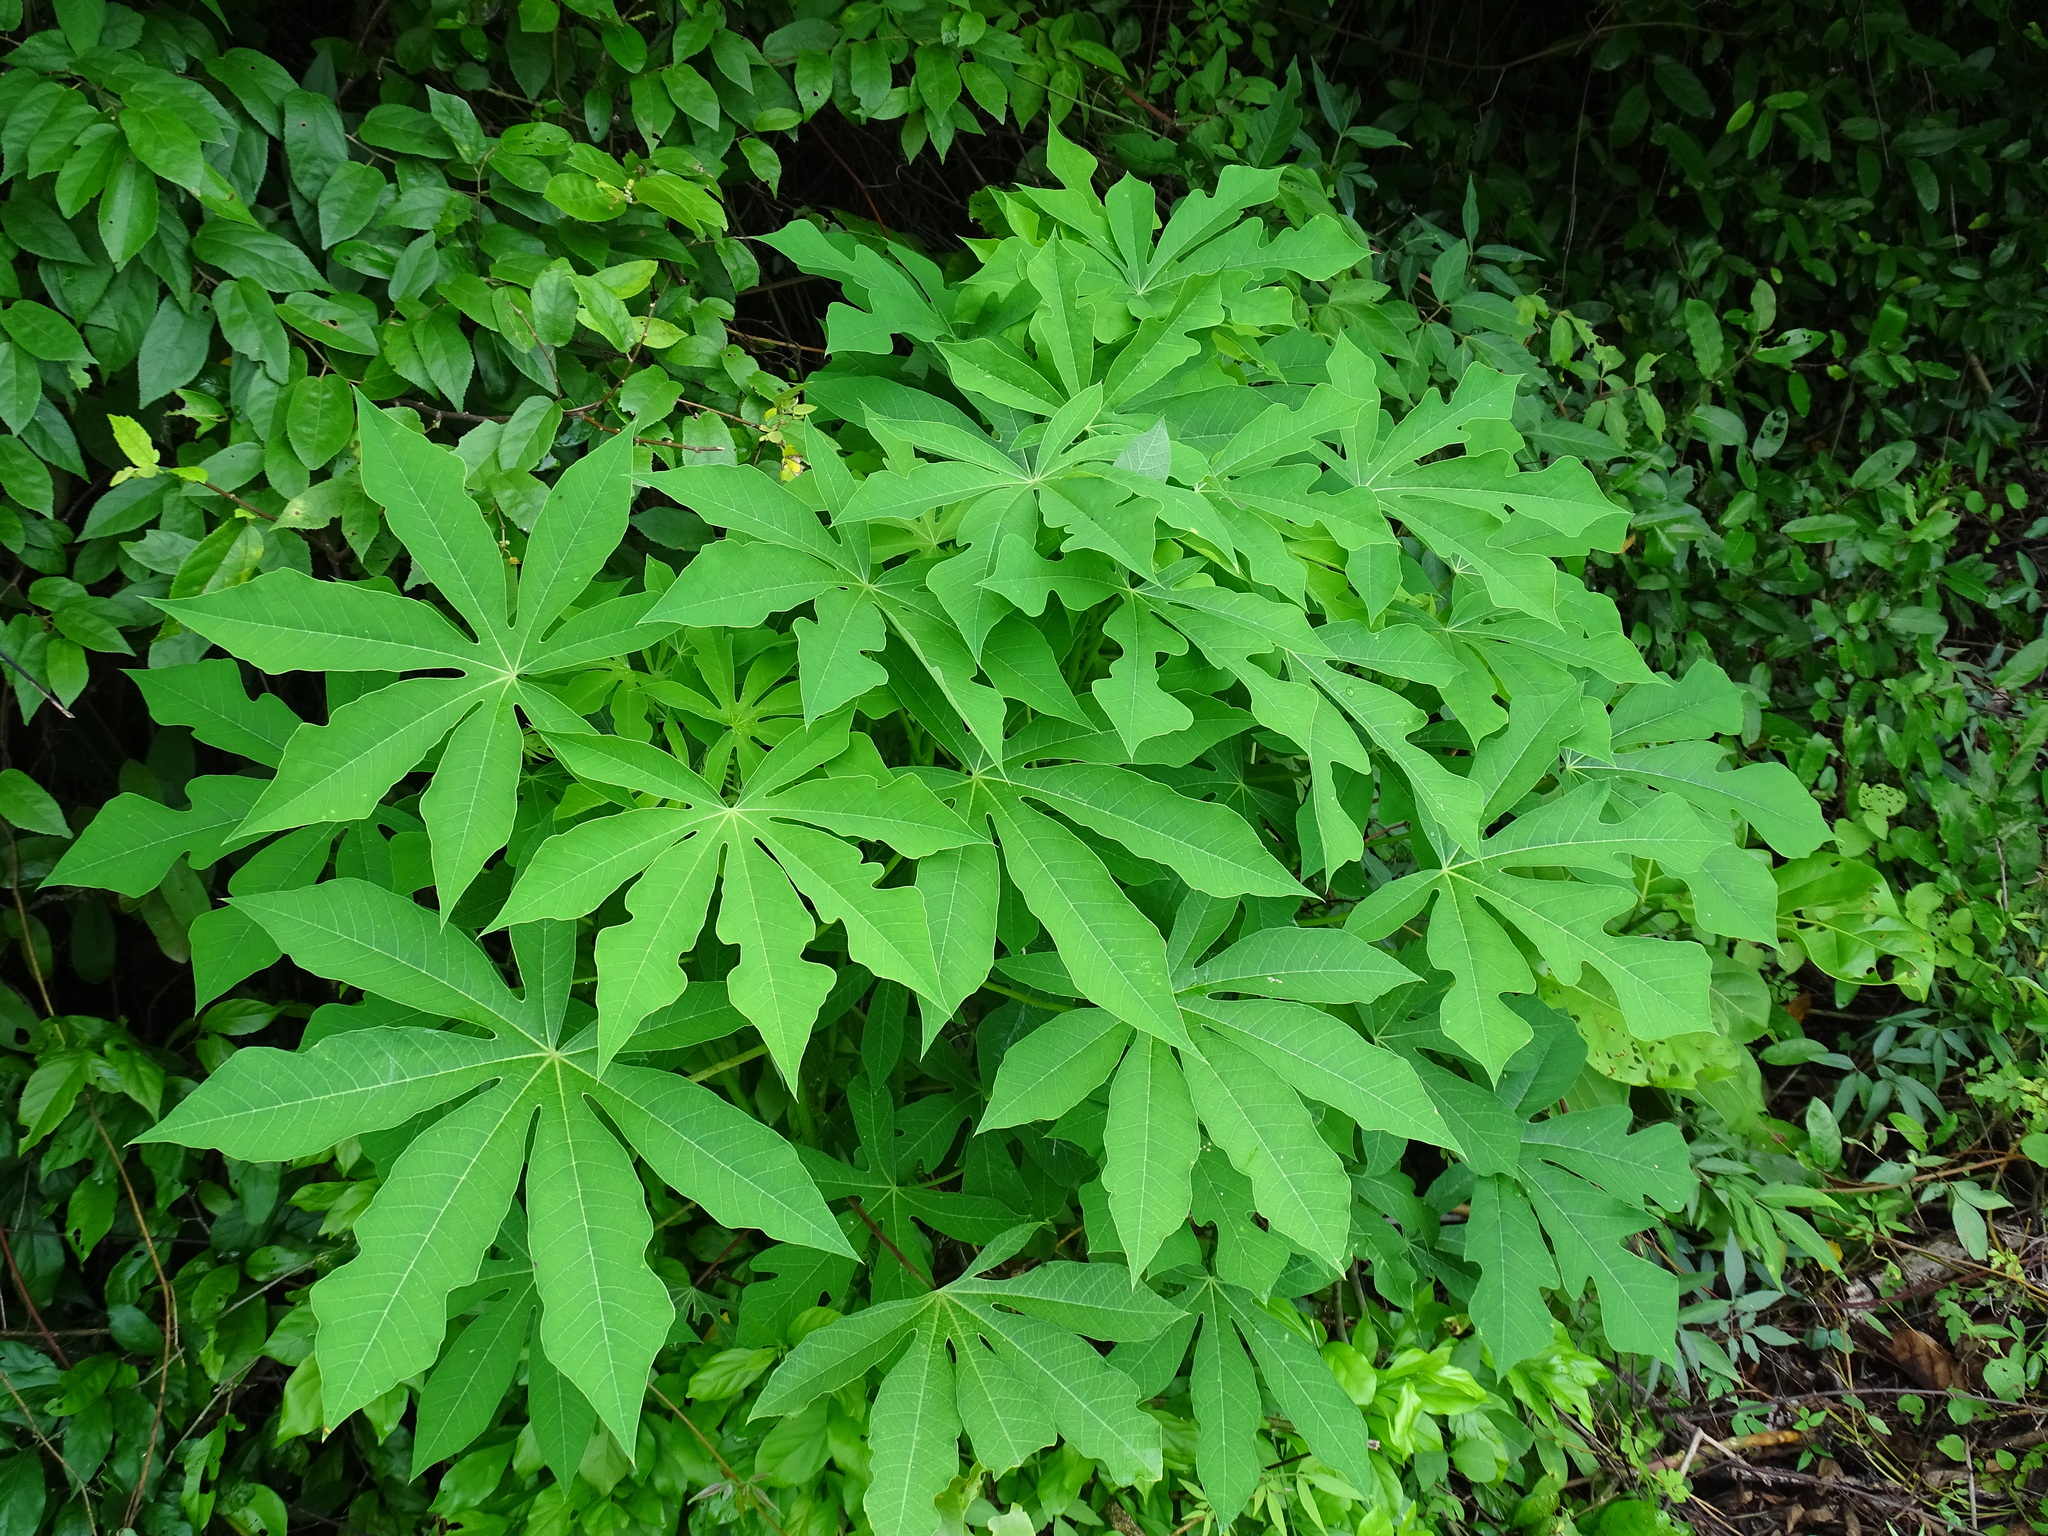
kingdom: Plantae
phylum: Tracheophyta
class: Magnoliopsida
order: Malpighiales
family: Euphorbiaceae
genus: Manihot
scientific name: Manihot esculenta
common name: Cassava
